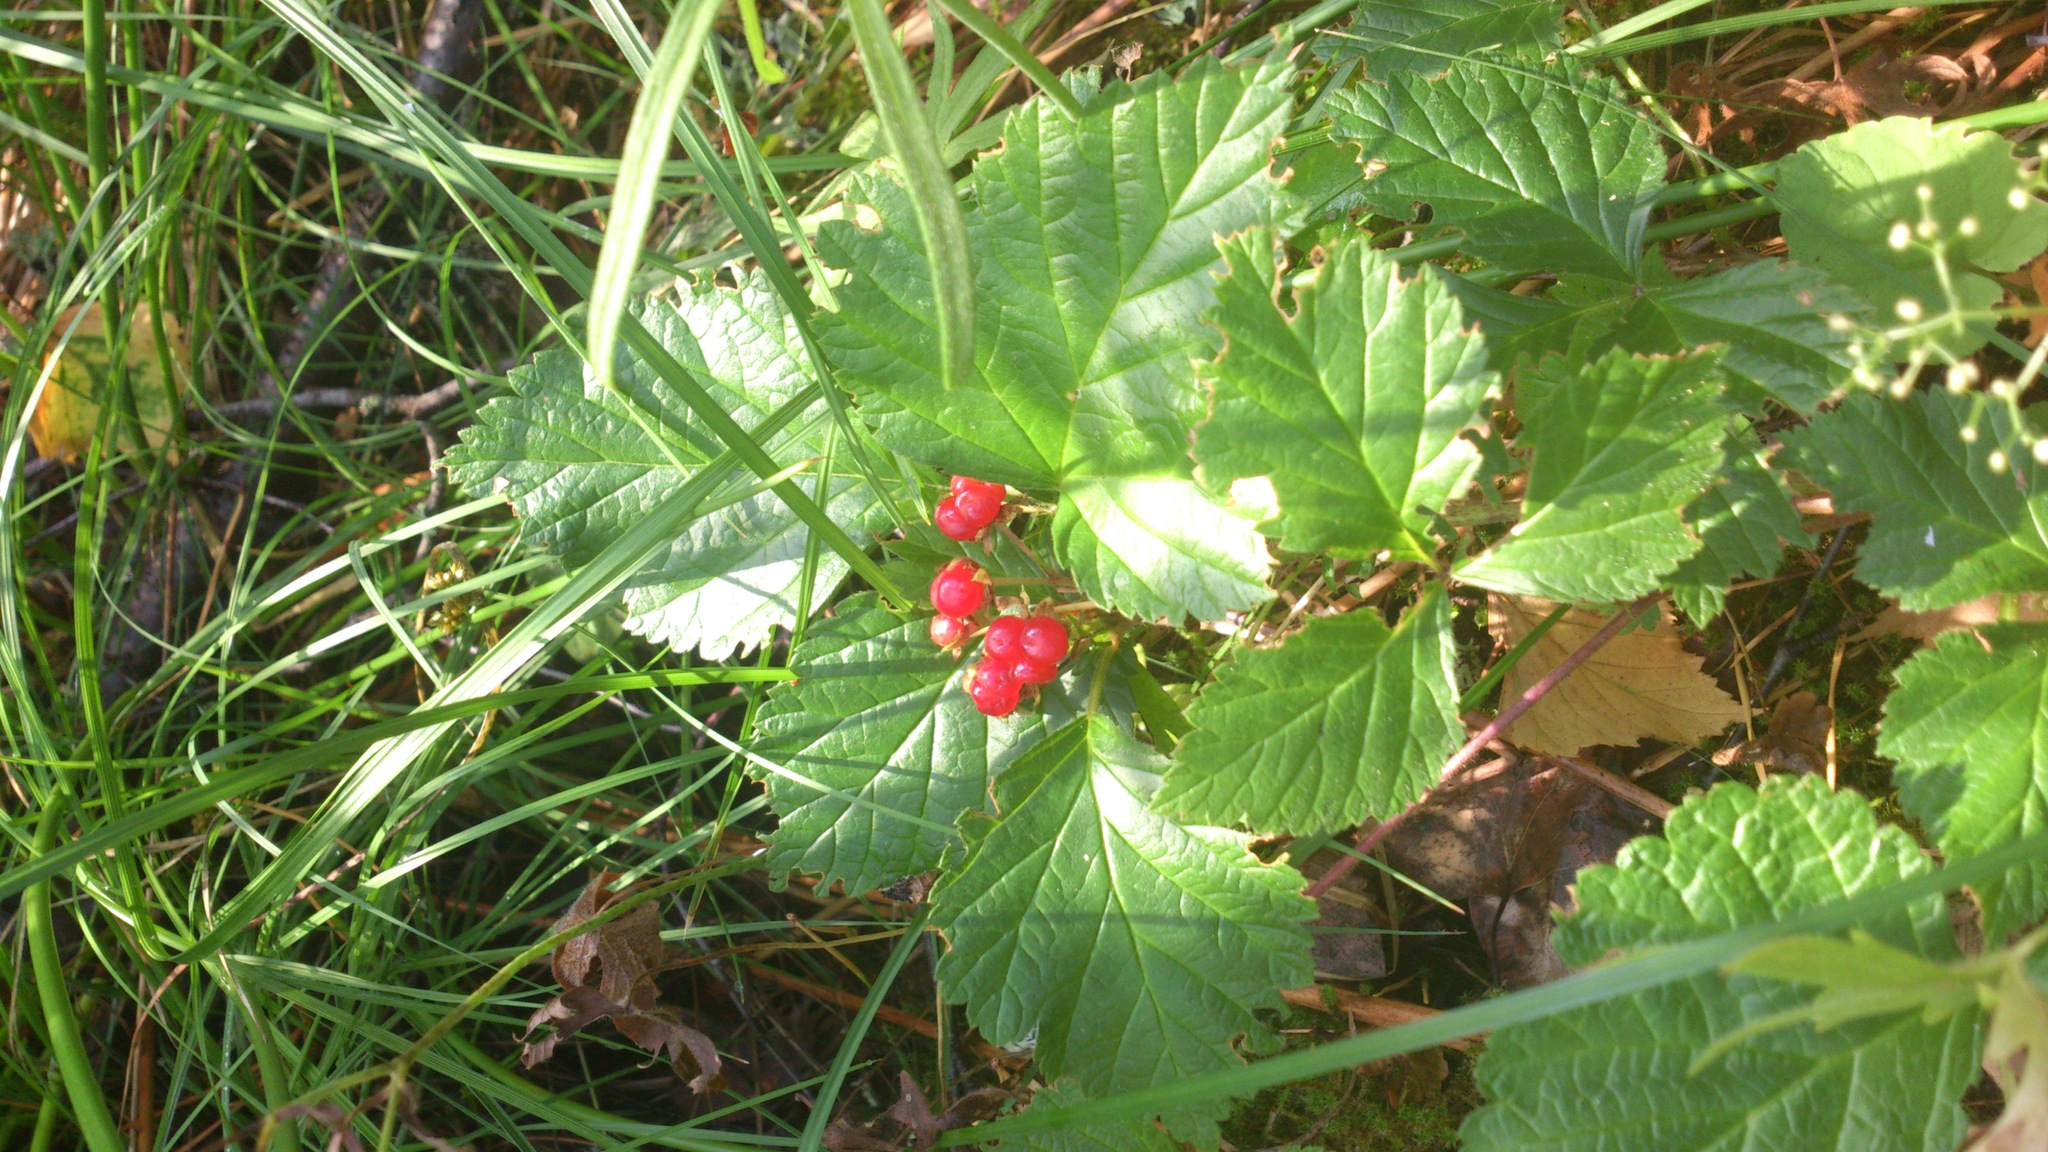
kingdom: Plantae
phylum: Tracheophyta
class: Magnoliopsida
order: Rosales
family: Rosaceae
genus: Rubus
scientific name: Rubus saxatilis
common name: Stone bramble
